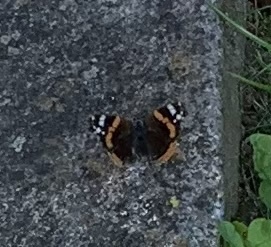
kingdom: Animalia
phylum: Arthropoda
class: Insecta
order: Lepidoptera
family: Nymphalidae
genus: Vanessa
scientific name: Vanessa atalanta
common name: Red admiral
